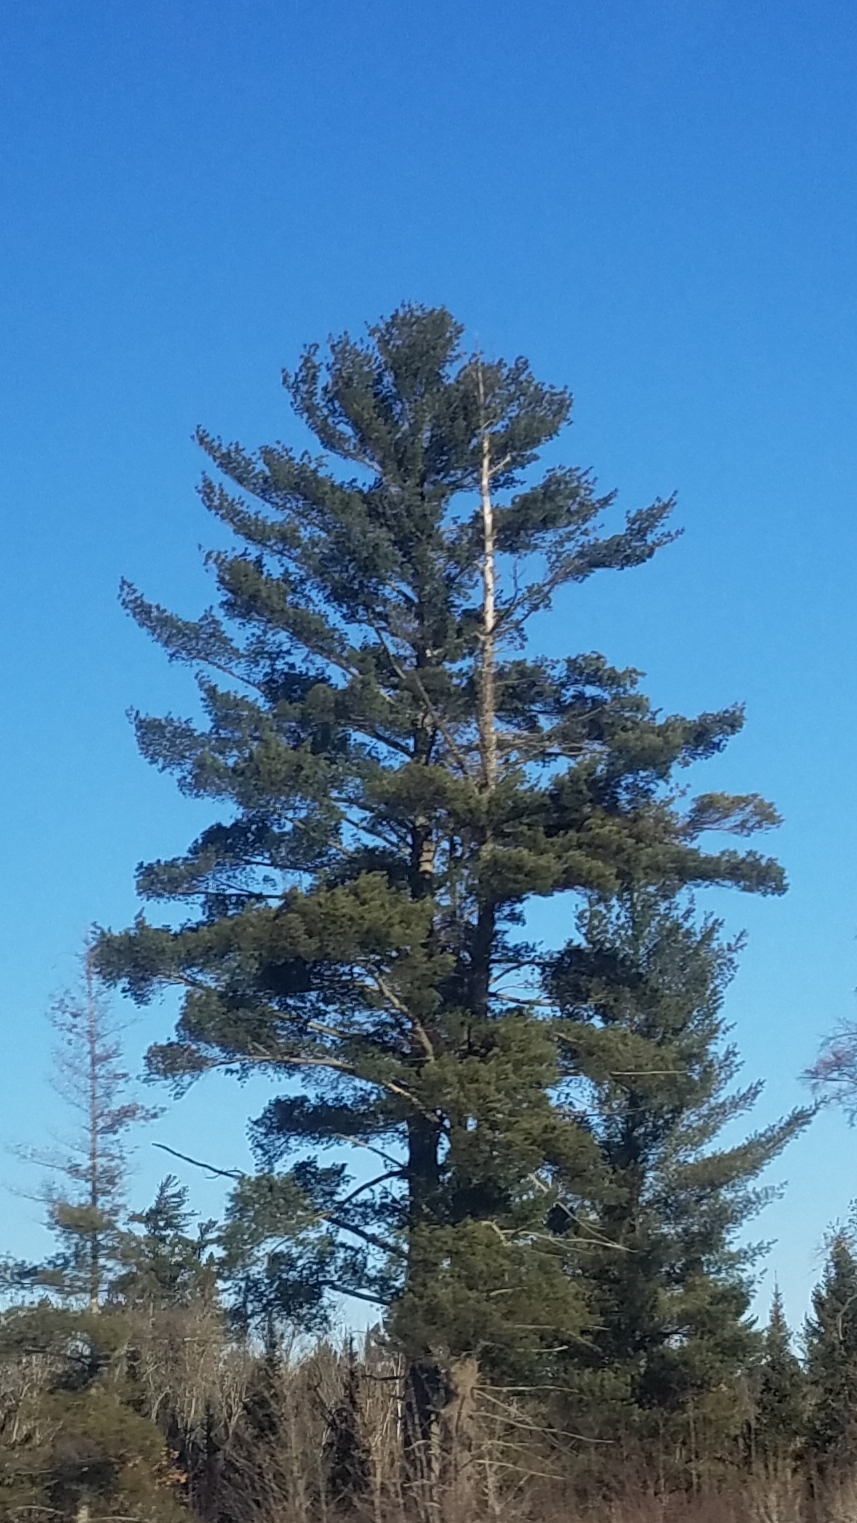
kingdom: Plantae
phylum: Tracheophyta
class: Pinopsida
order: Pinales
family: Pinaceae
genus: Pinus
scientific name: Pinus strobus
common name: Weymouth pine
